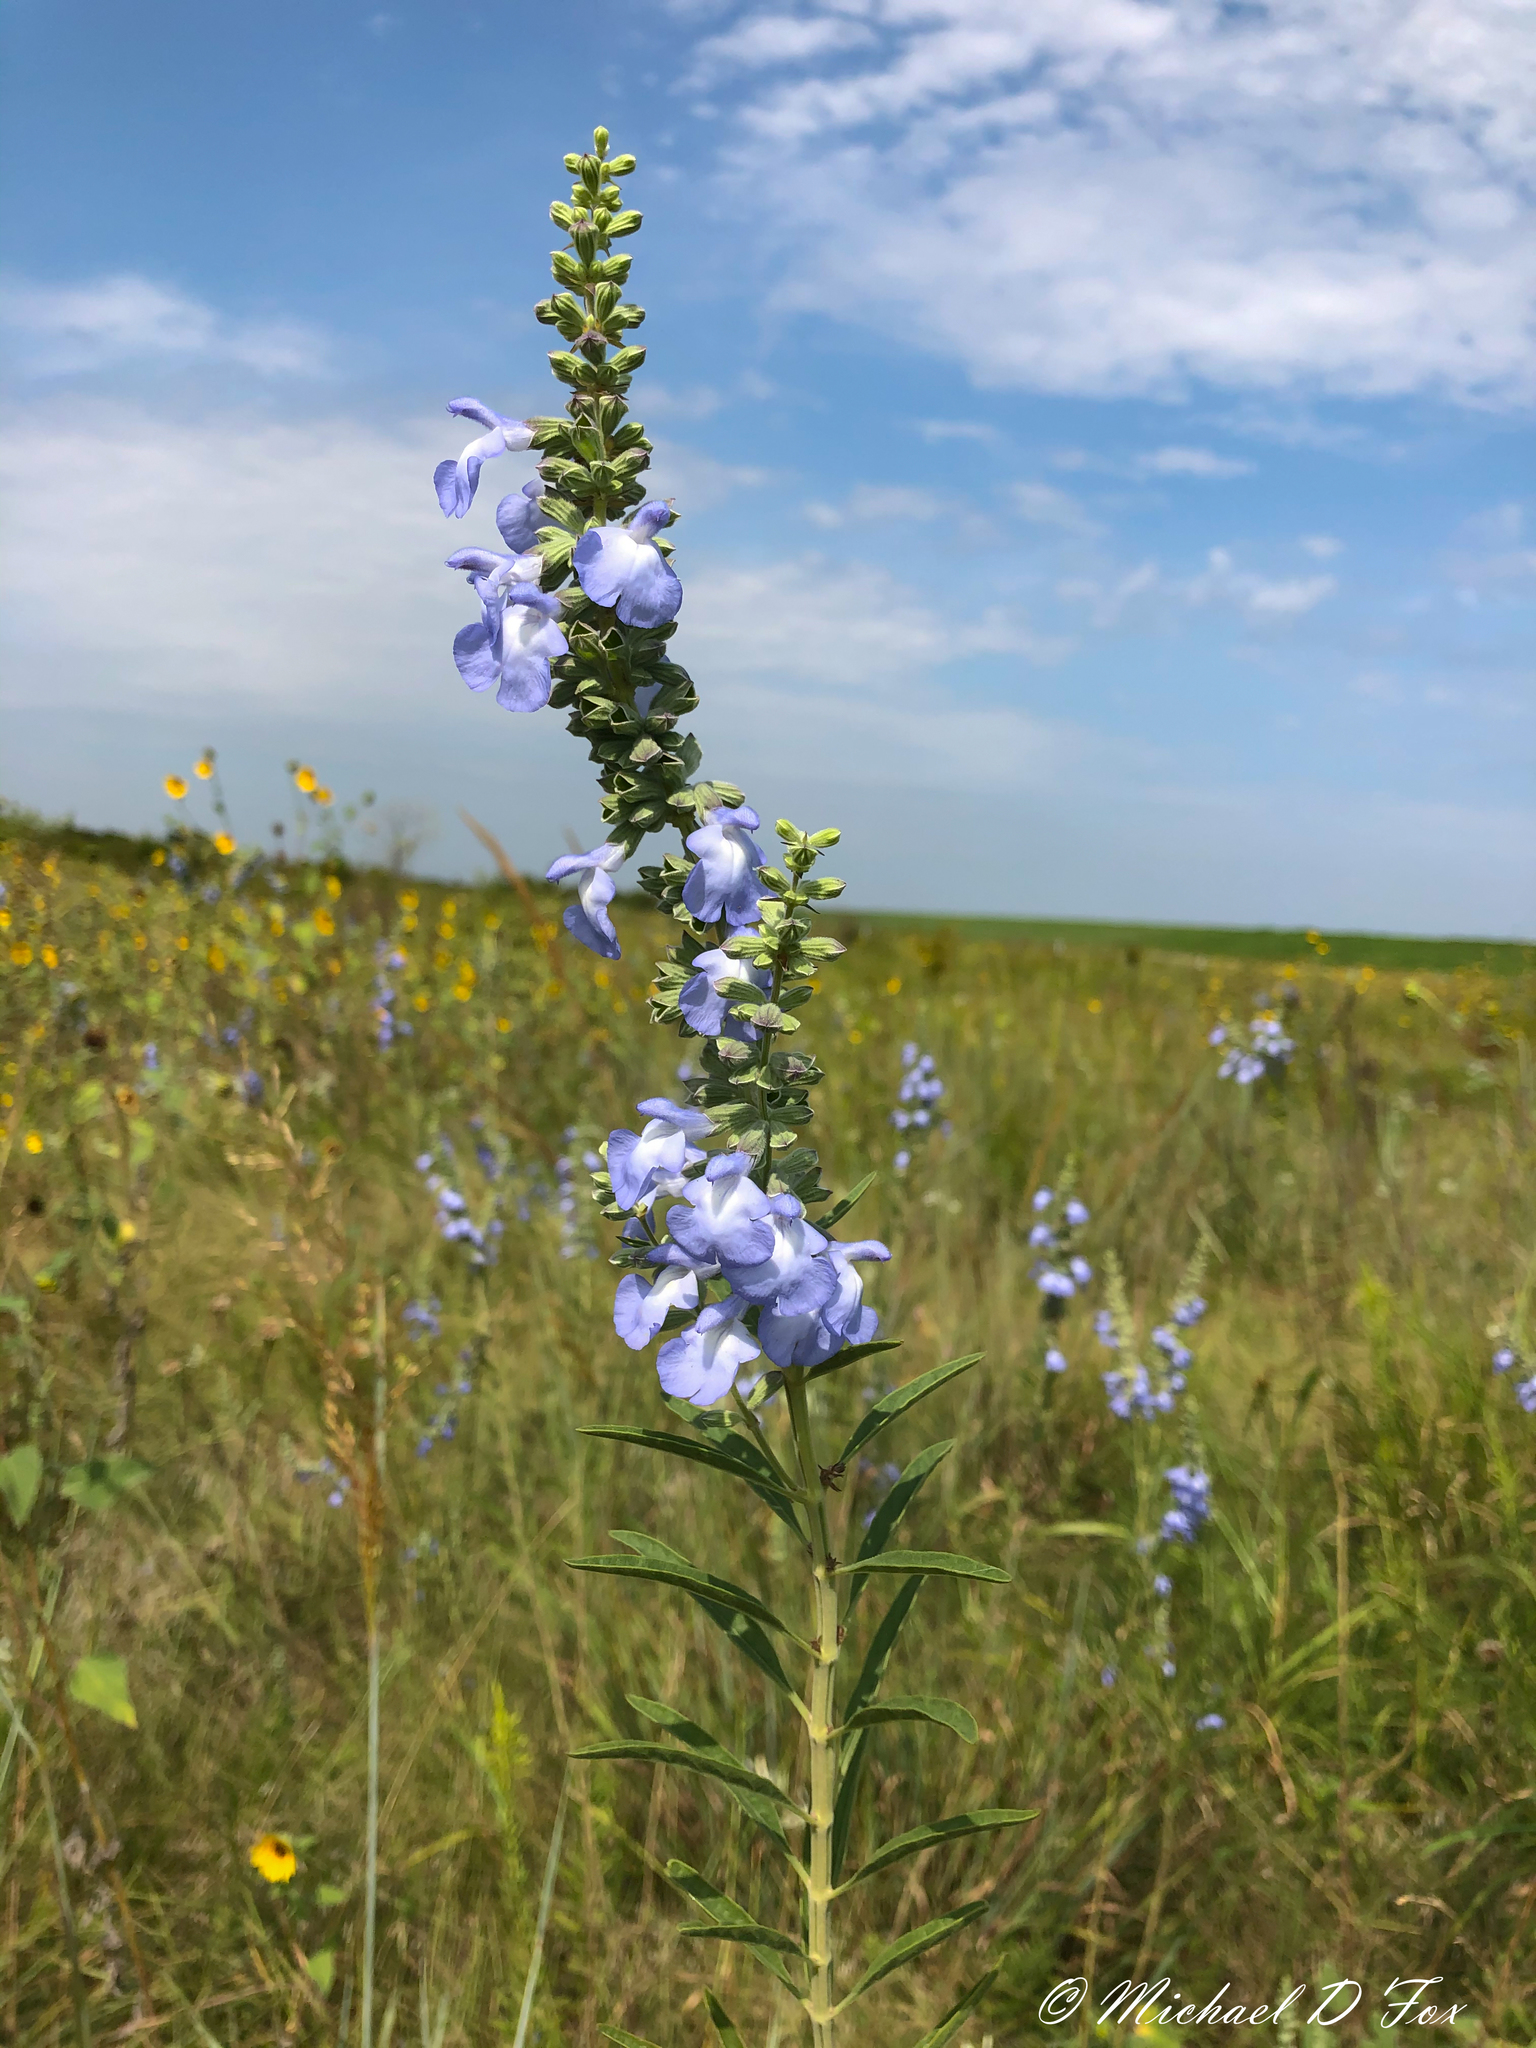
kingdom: Plantae
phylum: Tracheophyta
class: Magnoliopsida
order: Lamiales
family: Lamiaceae
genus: Salvia
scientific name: Salvia azurea
